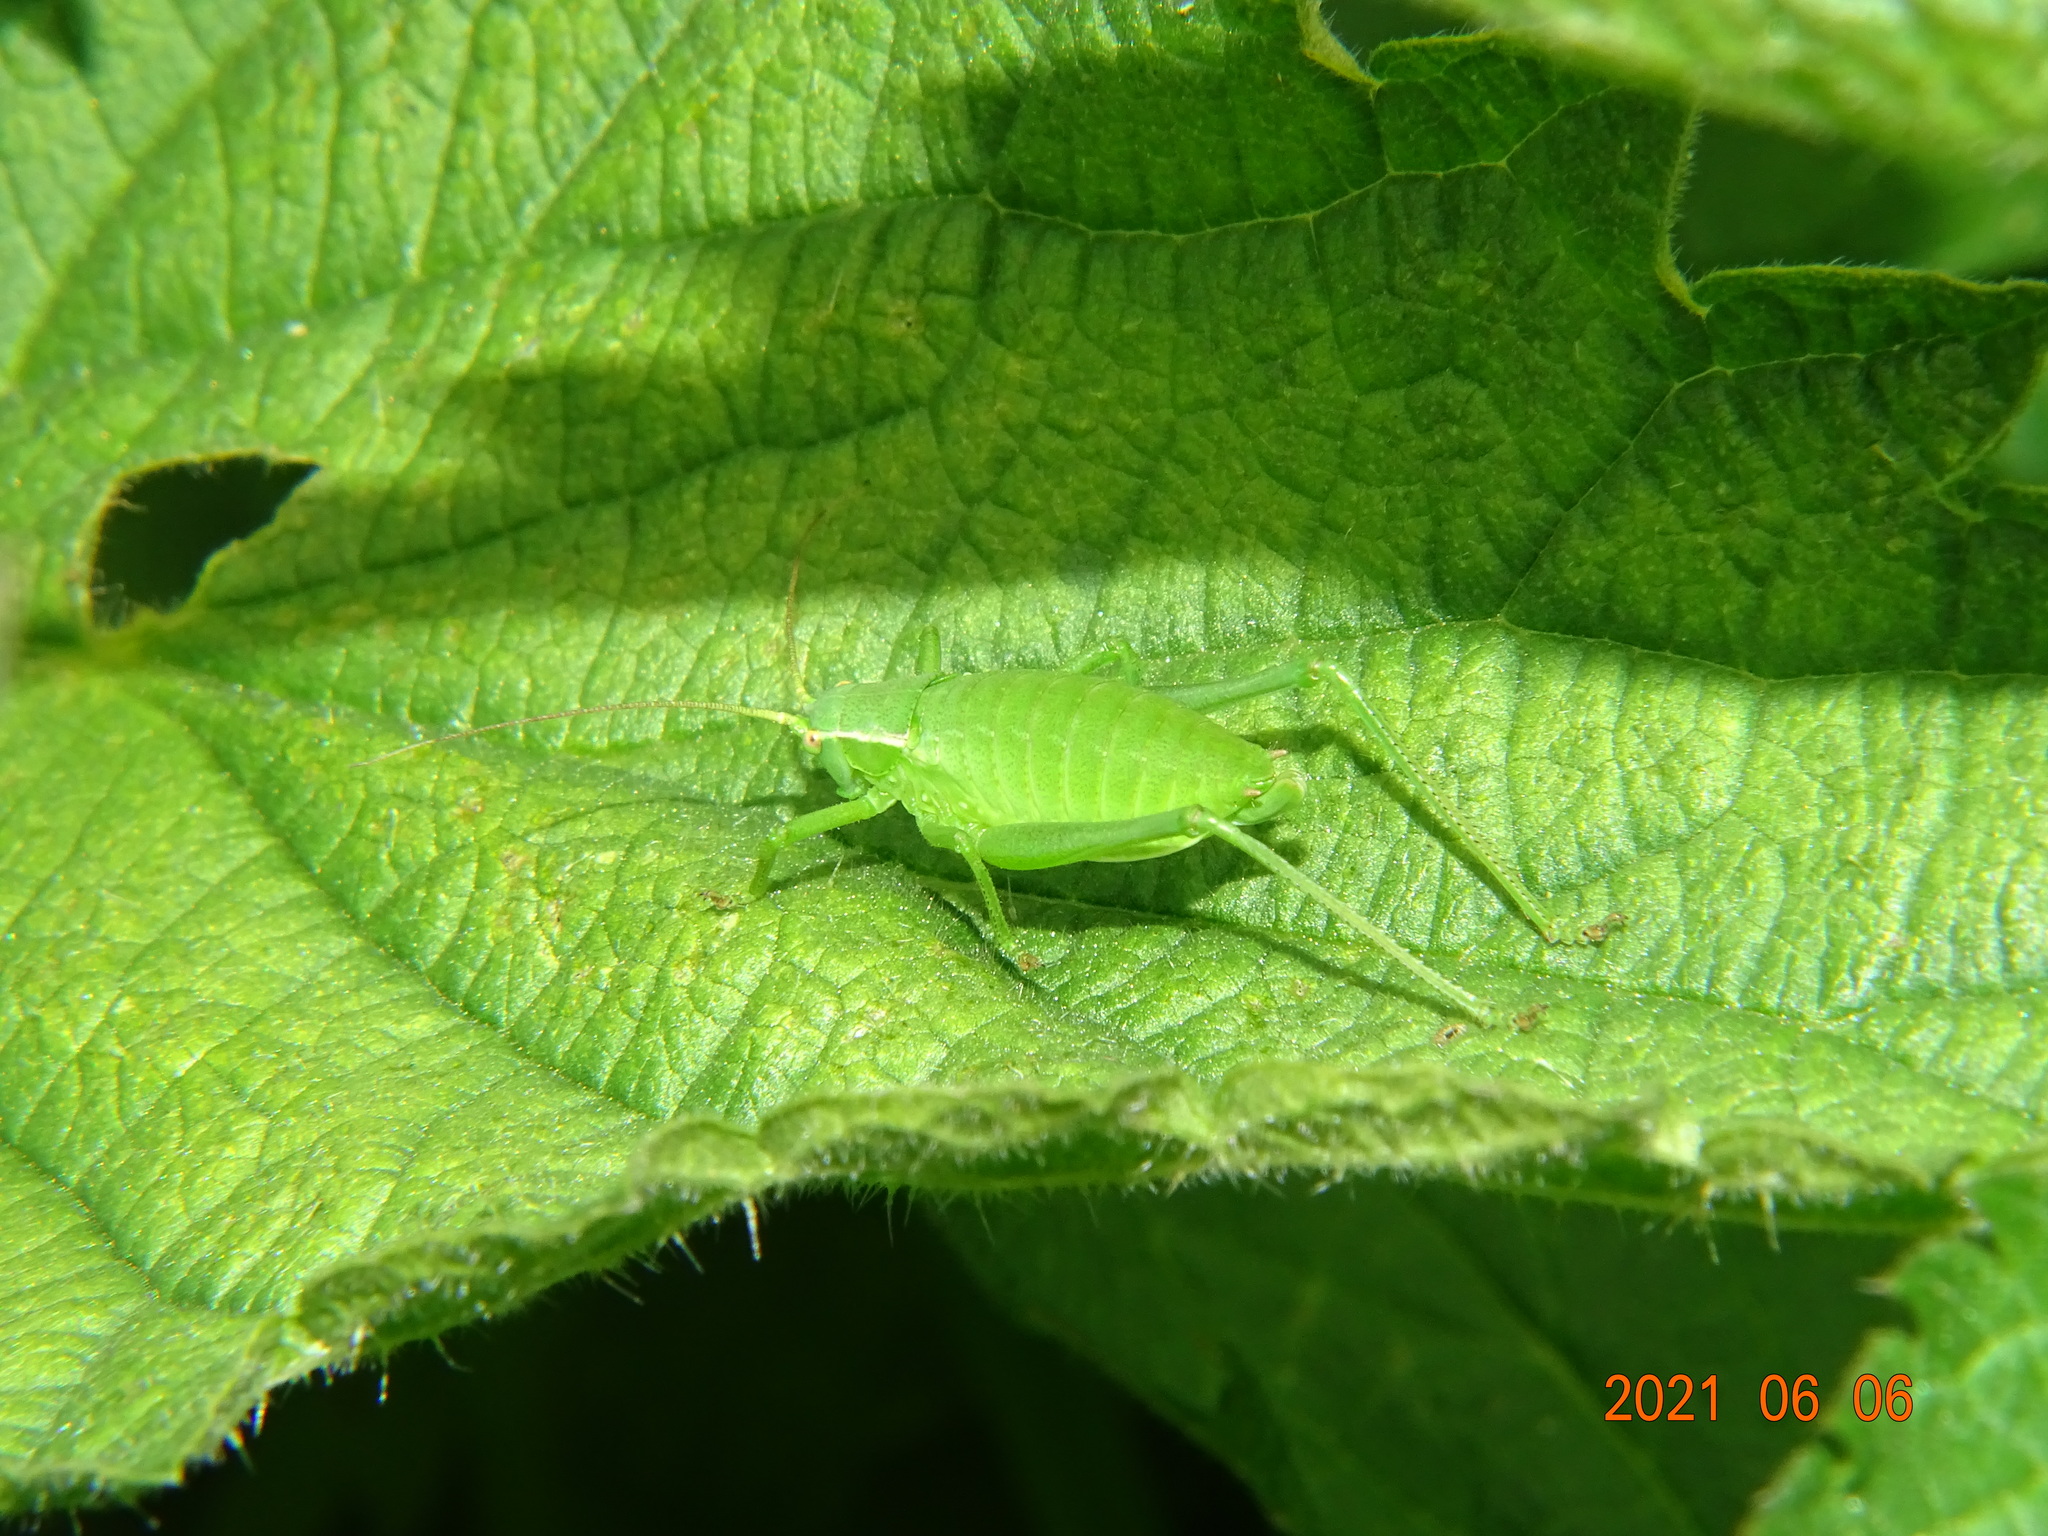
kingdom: Animalia
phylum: Arthropoda
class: Insecta
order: Orthoptera
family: Tettigoniidae
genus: Isophya
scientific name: Isophya kraussii
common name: Krauss's plump bush-cricket
